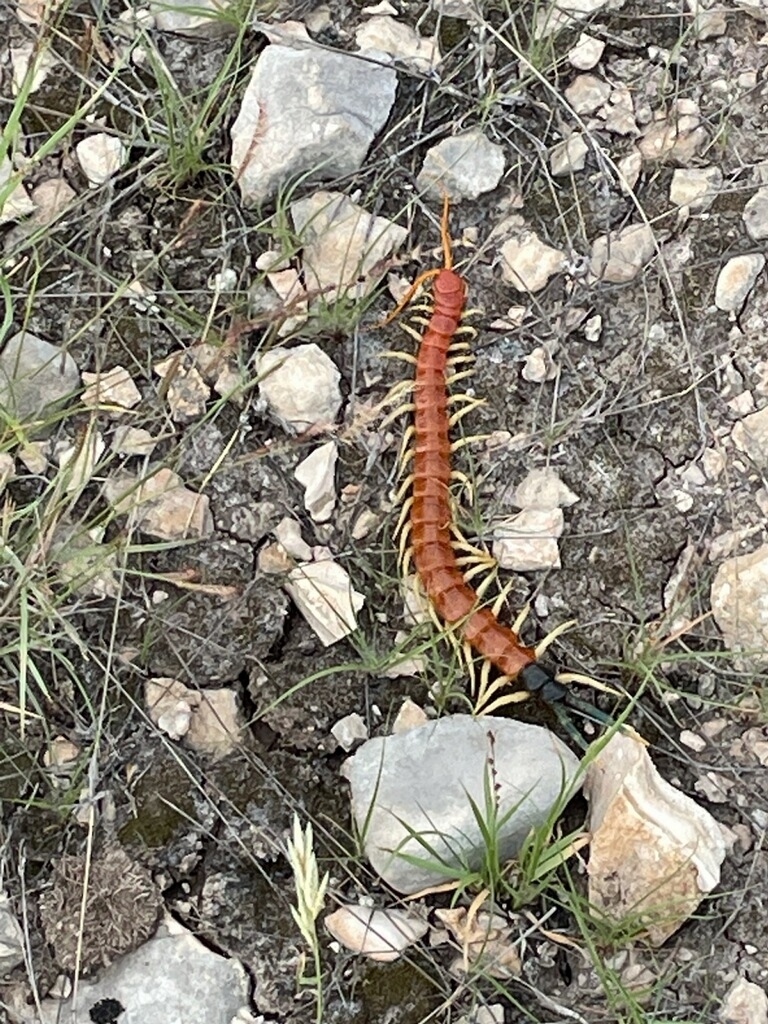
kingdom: Animalia
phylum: Arthropoda
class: Chilopoda
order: Scolopendromorpha
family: Scolopendridae
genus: Scolopendra
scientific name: Scolopendra heros
